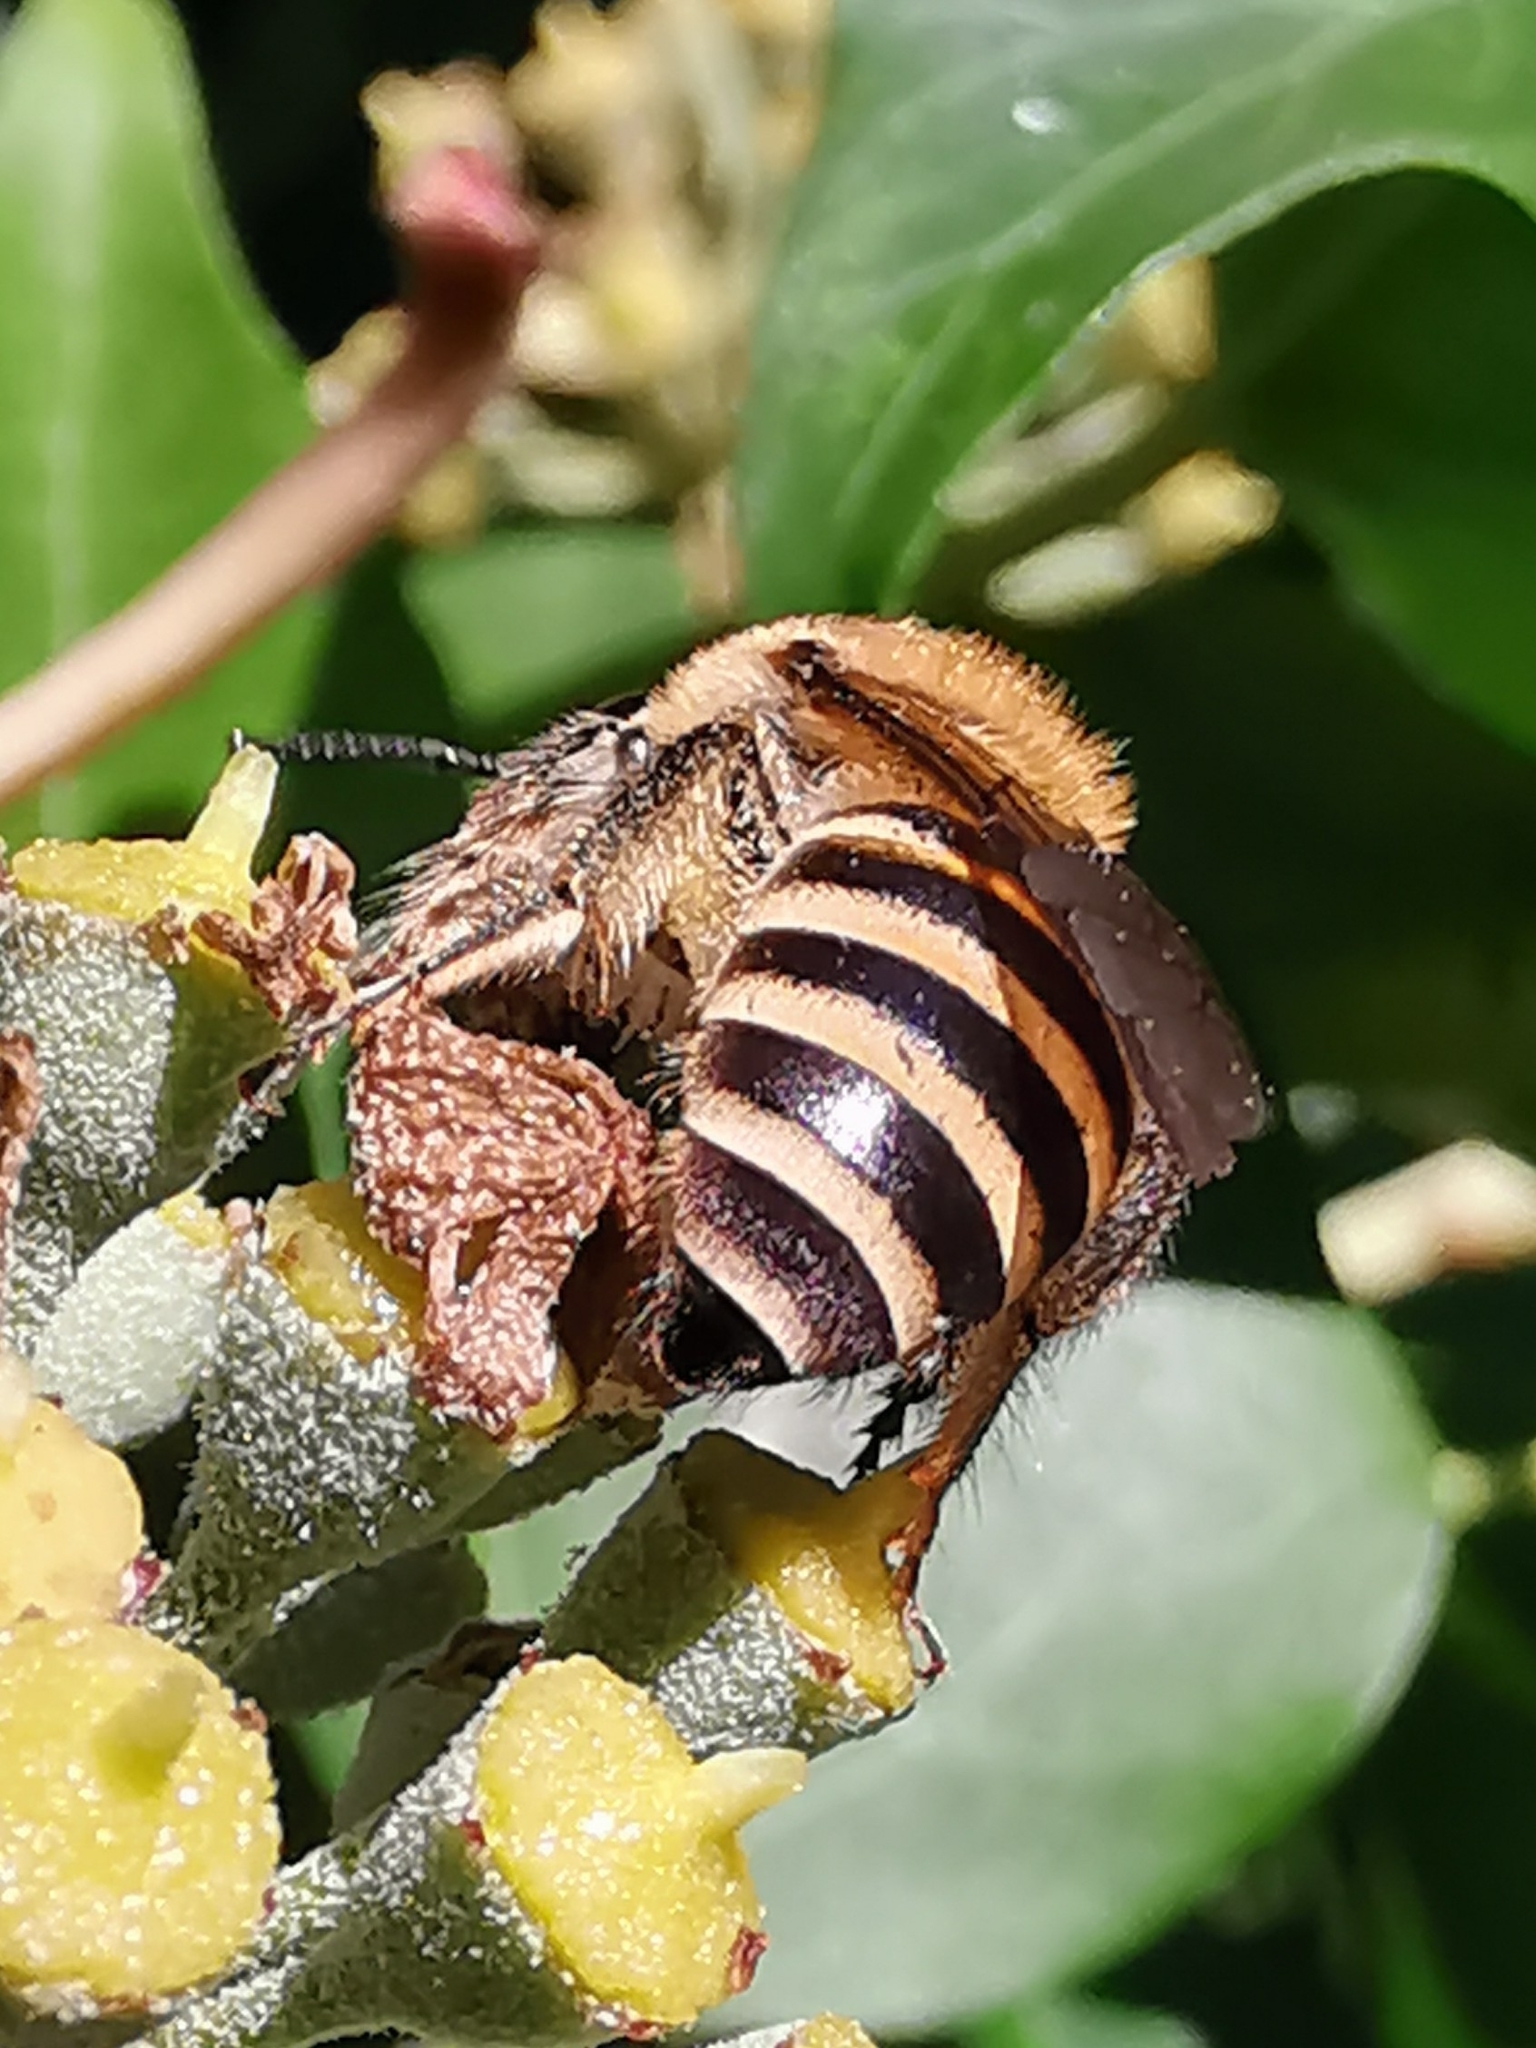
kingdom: Animalia
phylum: Arthropoda
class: Insecta
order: Hymenoptera
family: Colletidae
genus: Colletes
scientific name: Colletes hederae
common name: Ivy bee
